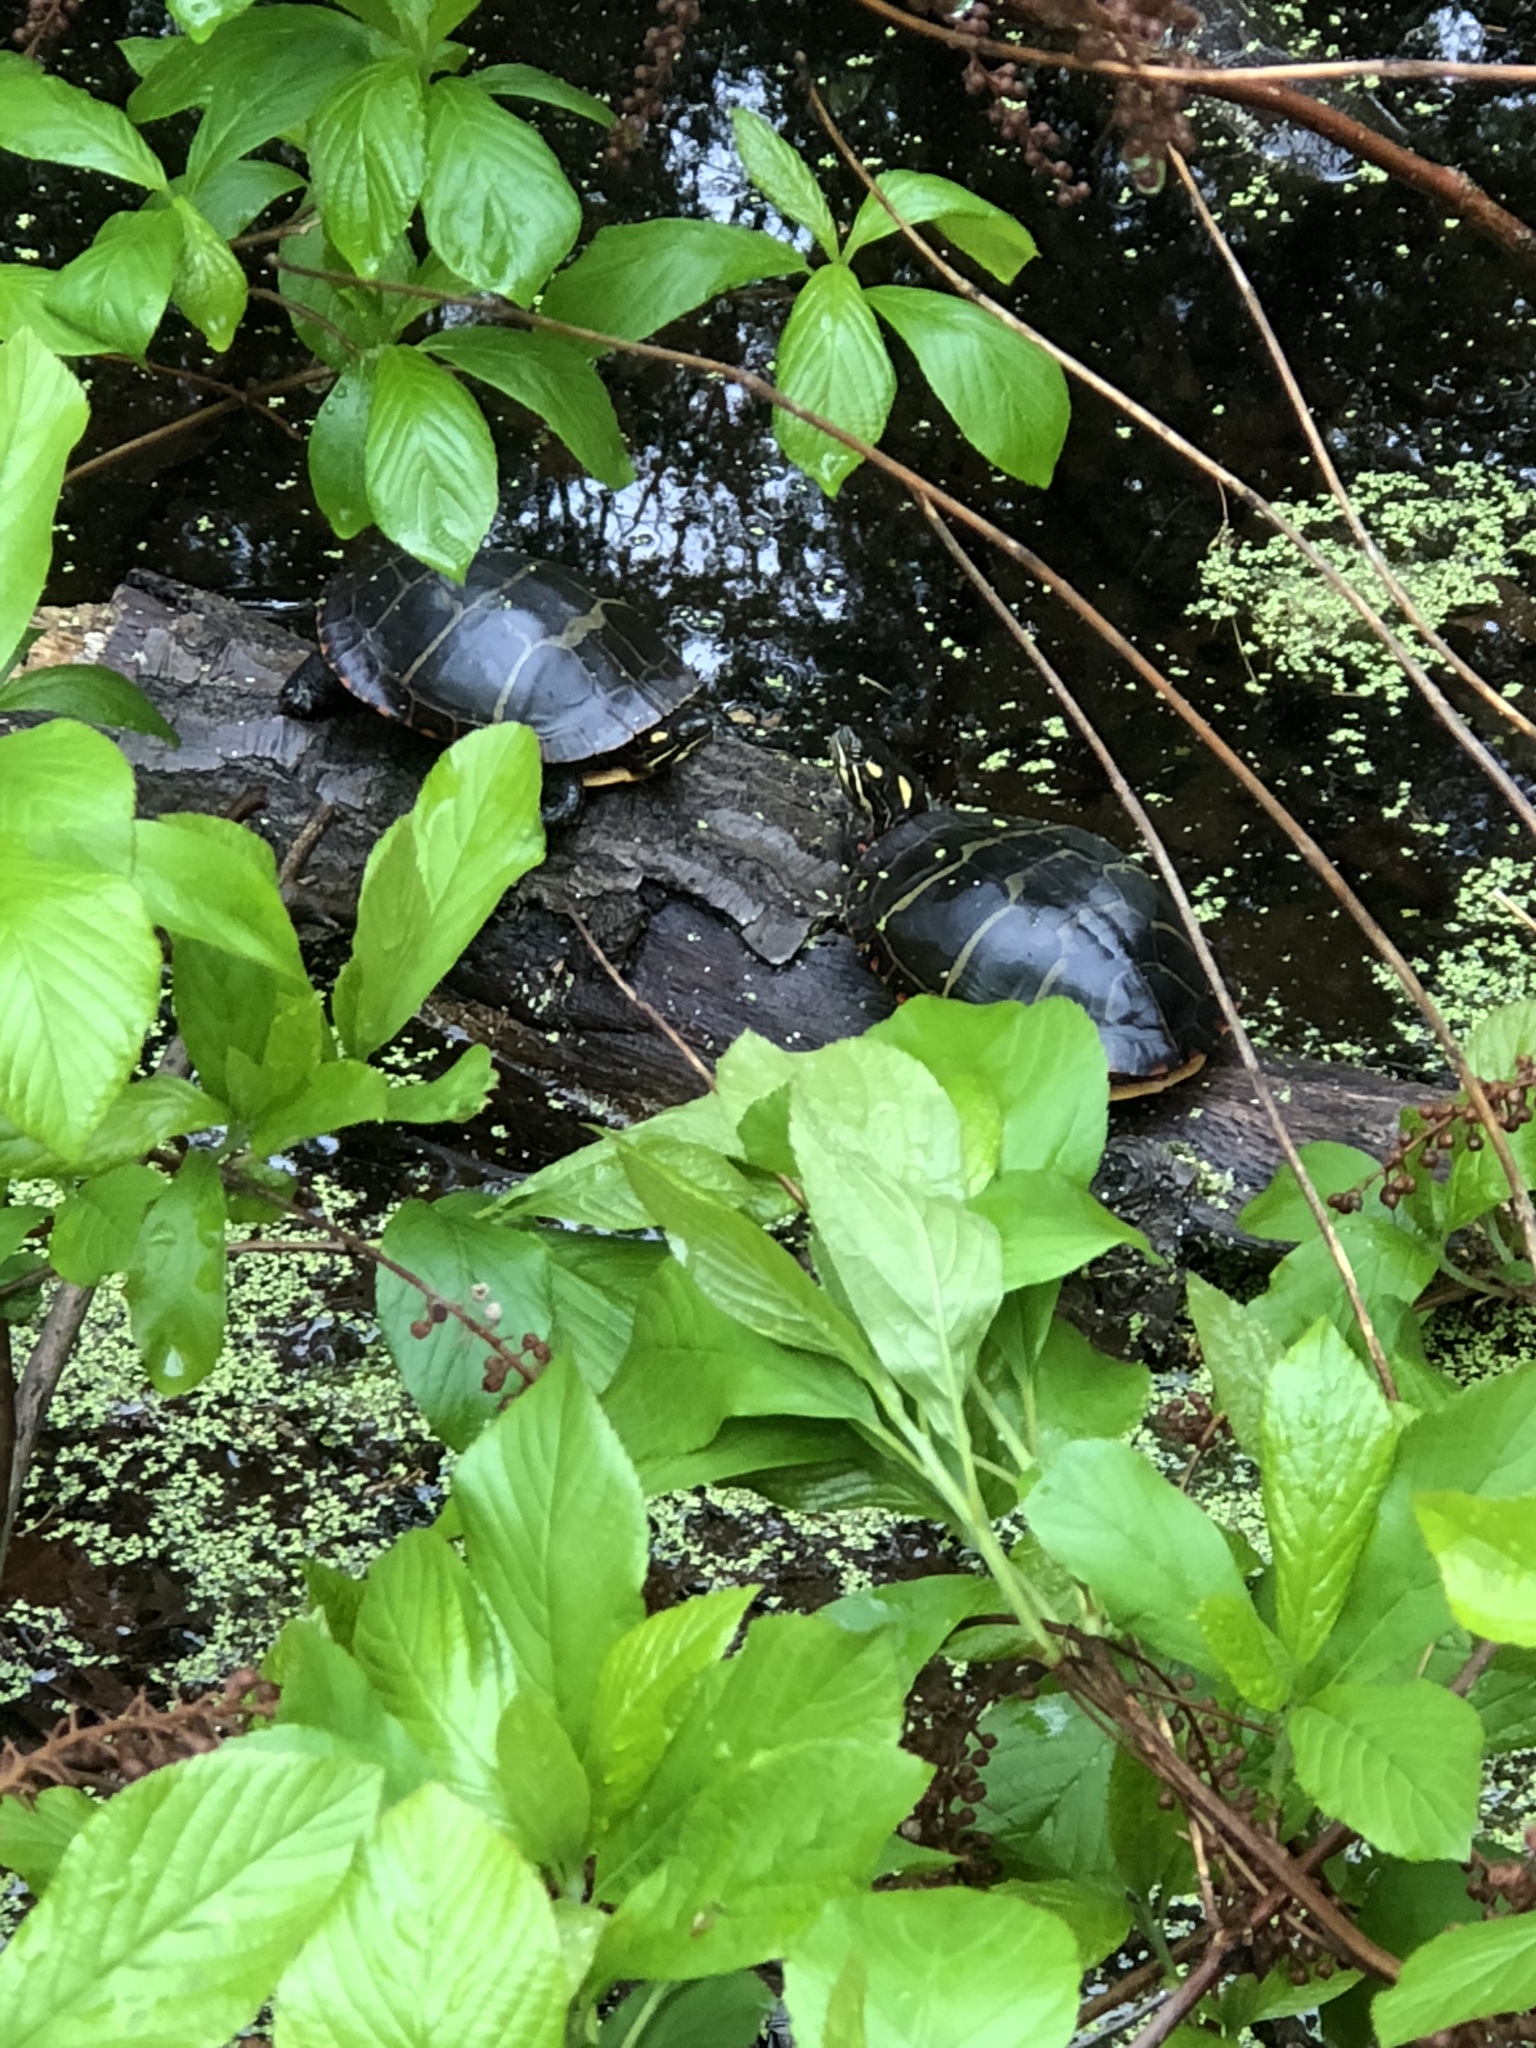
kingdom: Animalia
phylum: Chordata
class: Testudines
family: Emydidae
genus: Chrysemys
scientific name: Chrysemys picta
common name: Painted turtle
